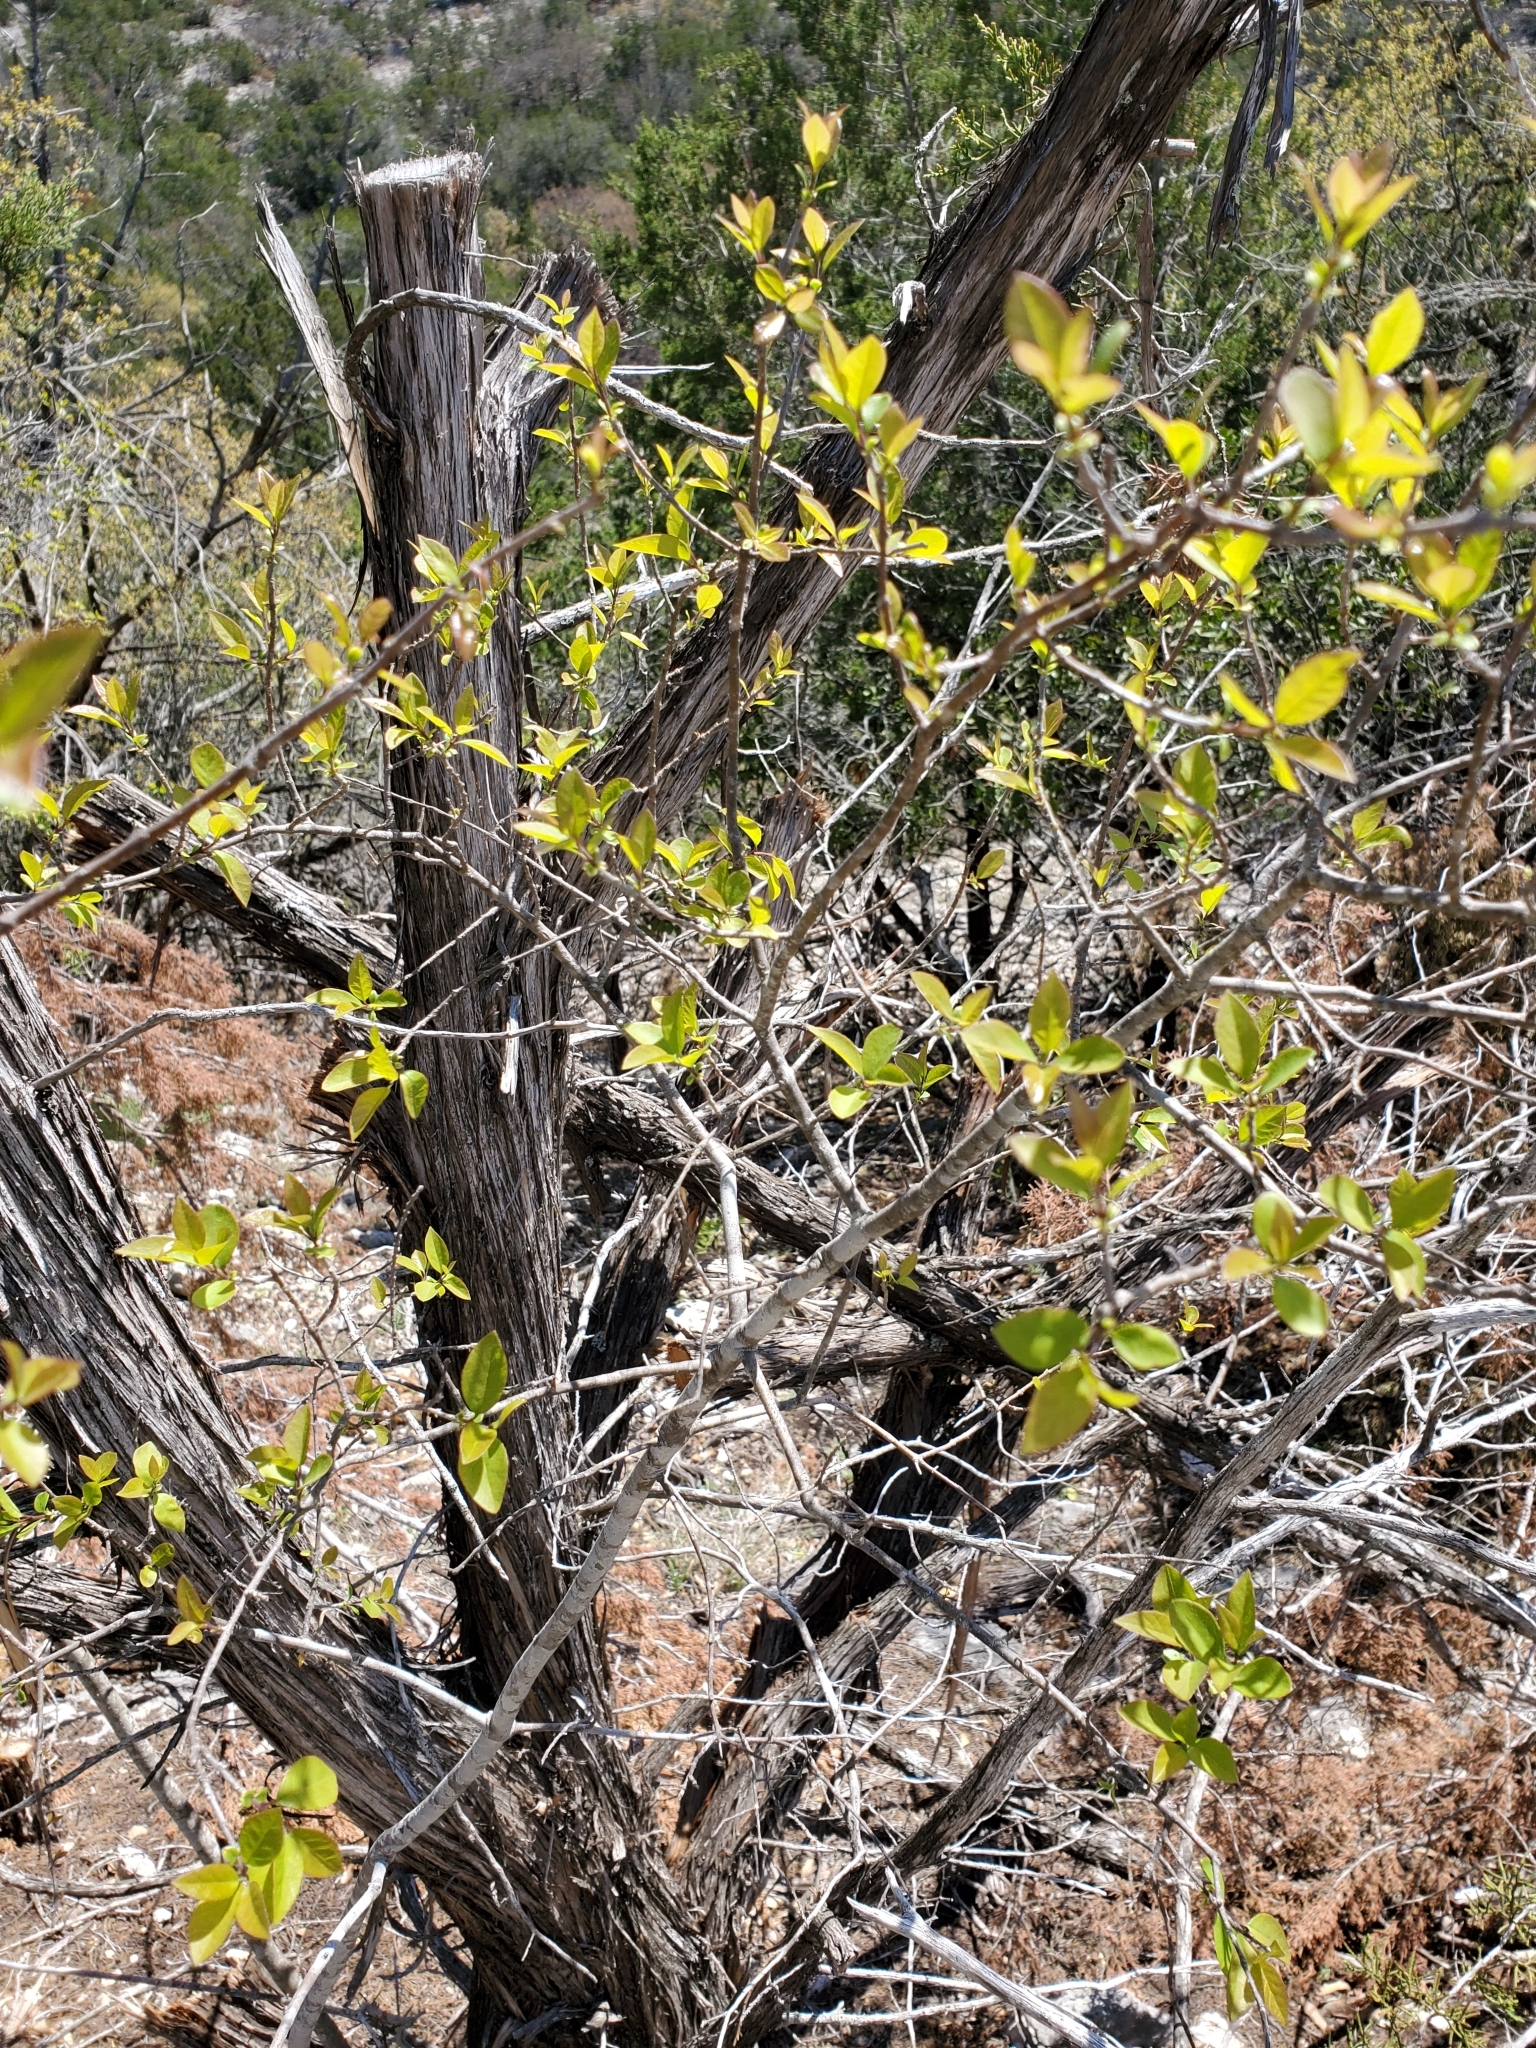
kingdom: Plantae
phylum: Tracheophyta
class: Magnoliopsida
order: Lamiales
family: Oleaceae
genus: Forestiera
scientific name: Forestiera reticulata
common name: Netleaf swamp-privet
